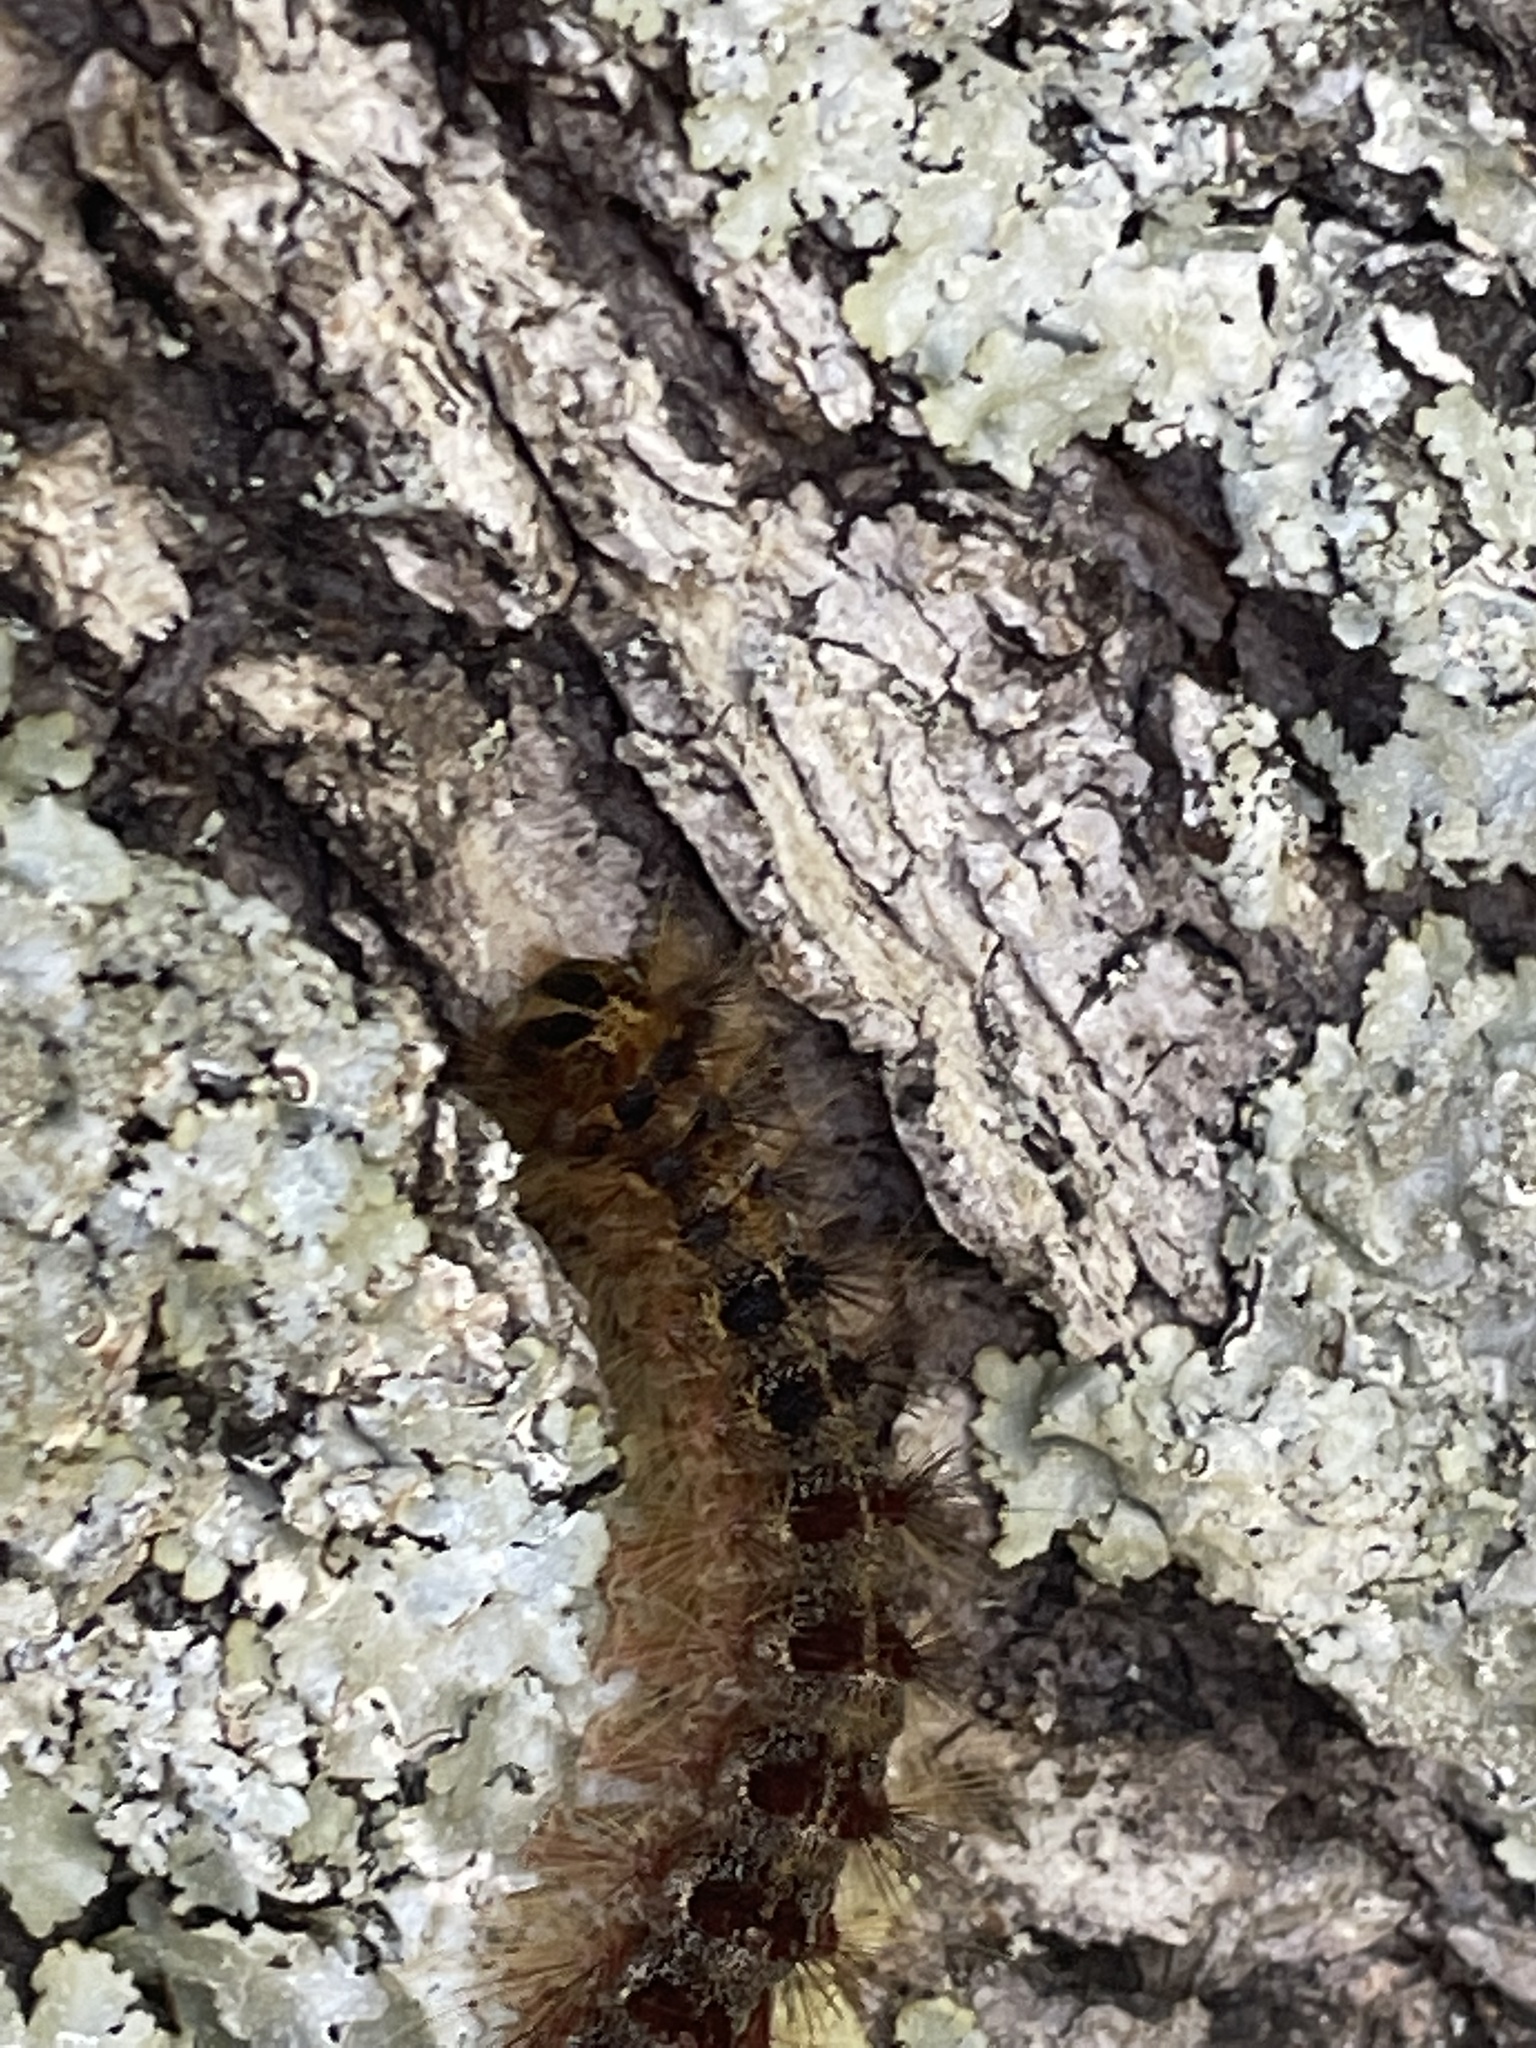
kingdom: Animalia
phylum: Arthropoda
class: Insecta
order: Lepidoptera
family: Erebidae
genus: Lymantria
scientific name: Lymantria dispar
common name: Gypsy moth
